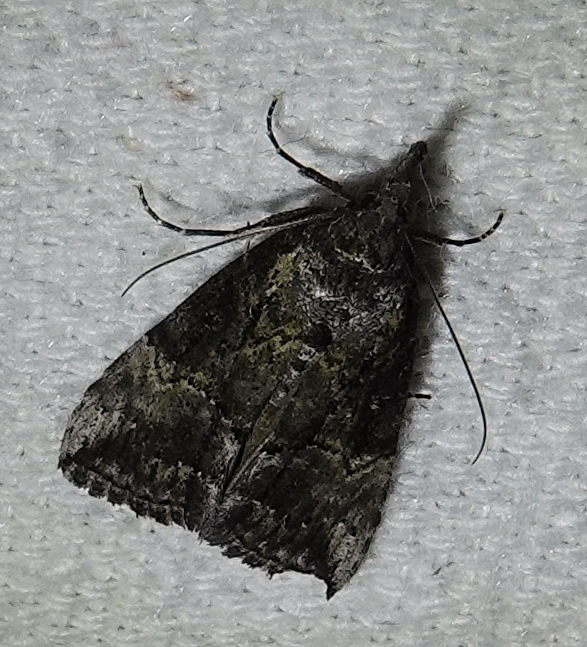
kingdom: Animalia
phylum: Arthropoda
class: Insecta
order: Lepidoptera
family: Erebidae
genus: Hypena
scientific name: Hypena scabra
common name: Green cloverworm
